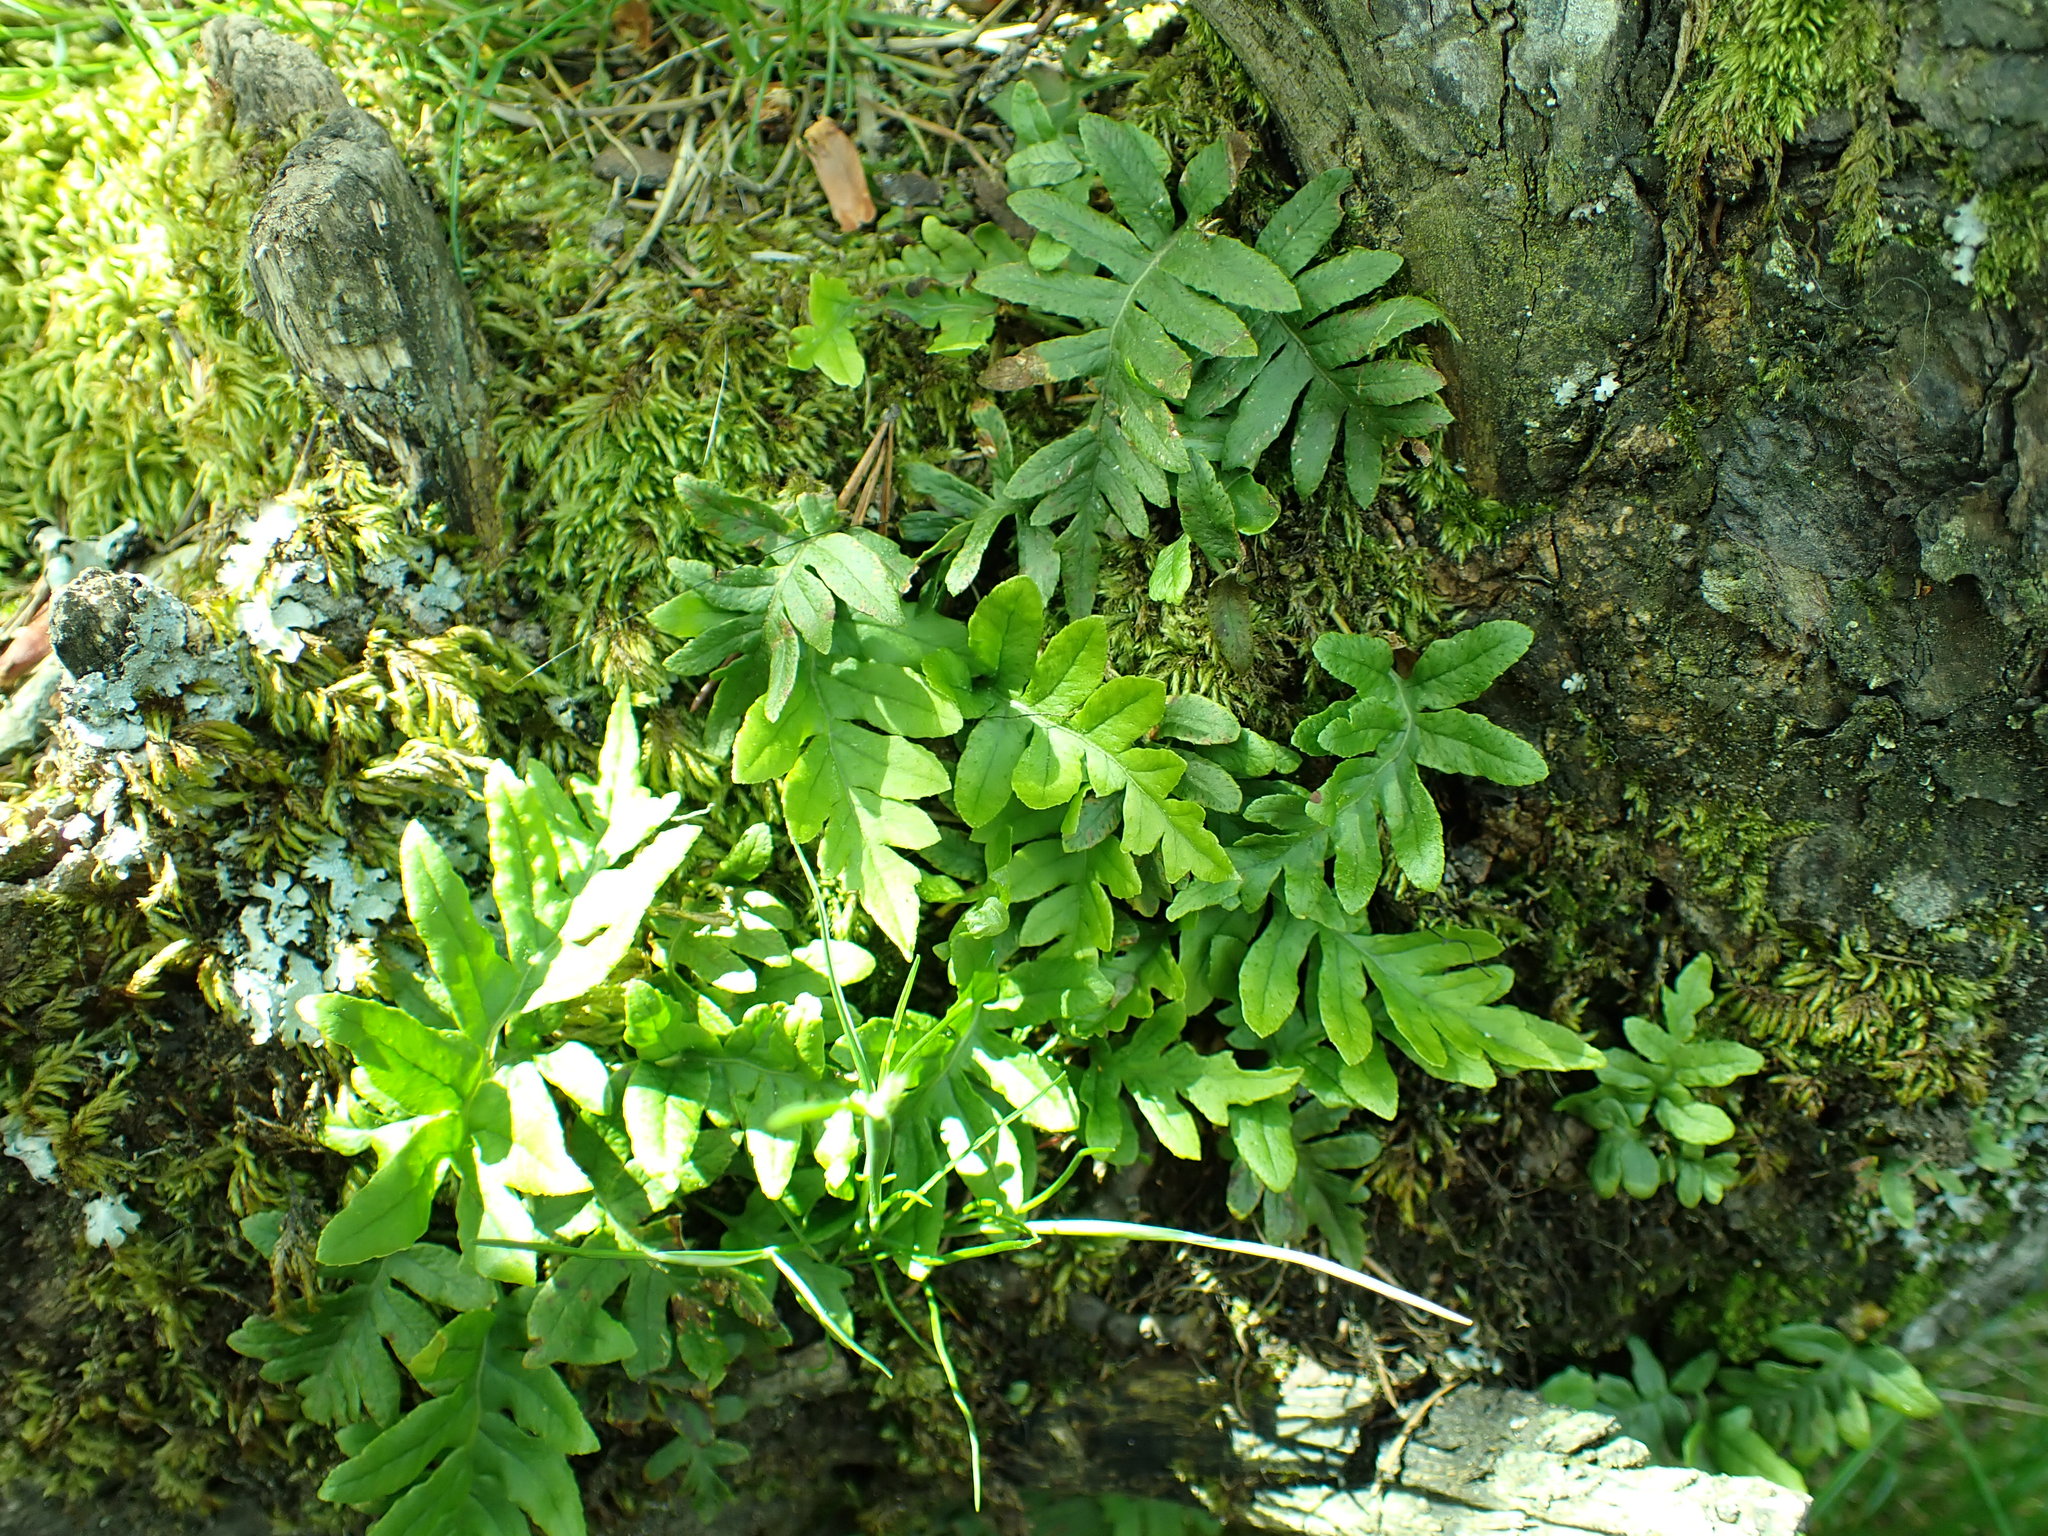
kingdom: Plantae
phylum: Tracheophyta
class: Polypodiopsida
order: Polypodiales
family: Polypodiaceae
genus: Polypodium
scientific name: Polypodium glycyrrhiza
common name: Licorice fern
